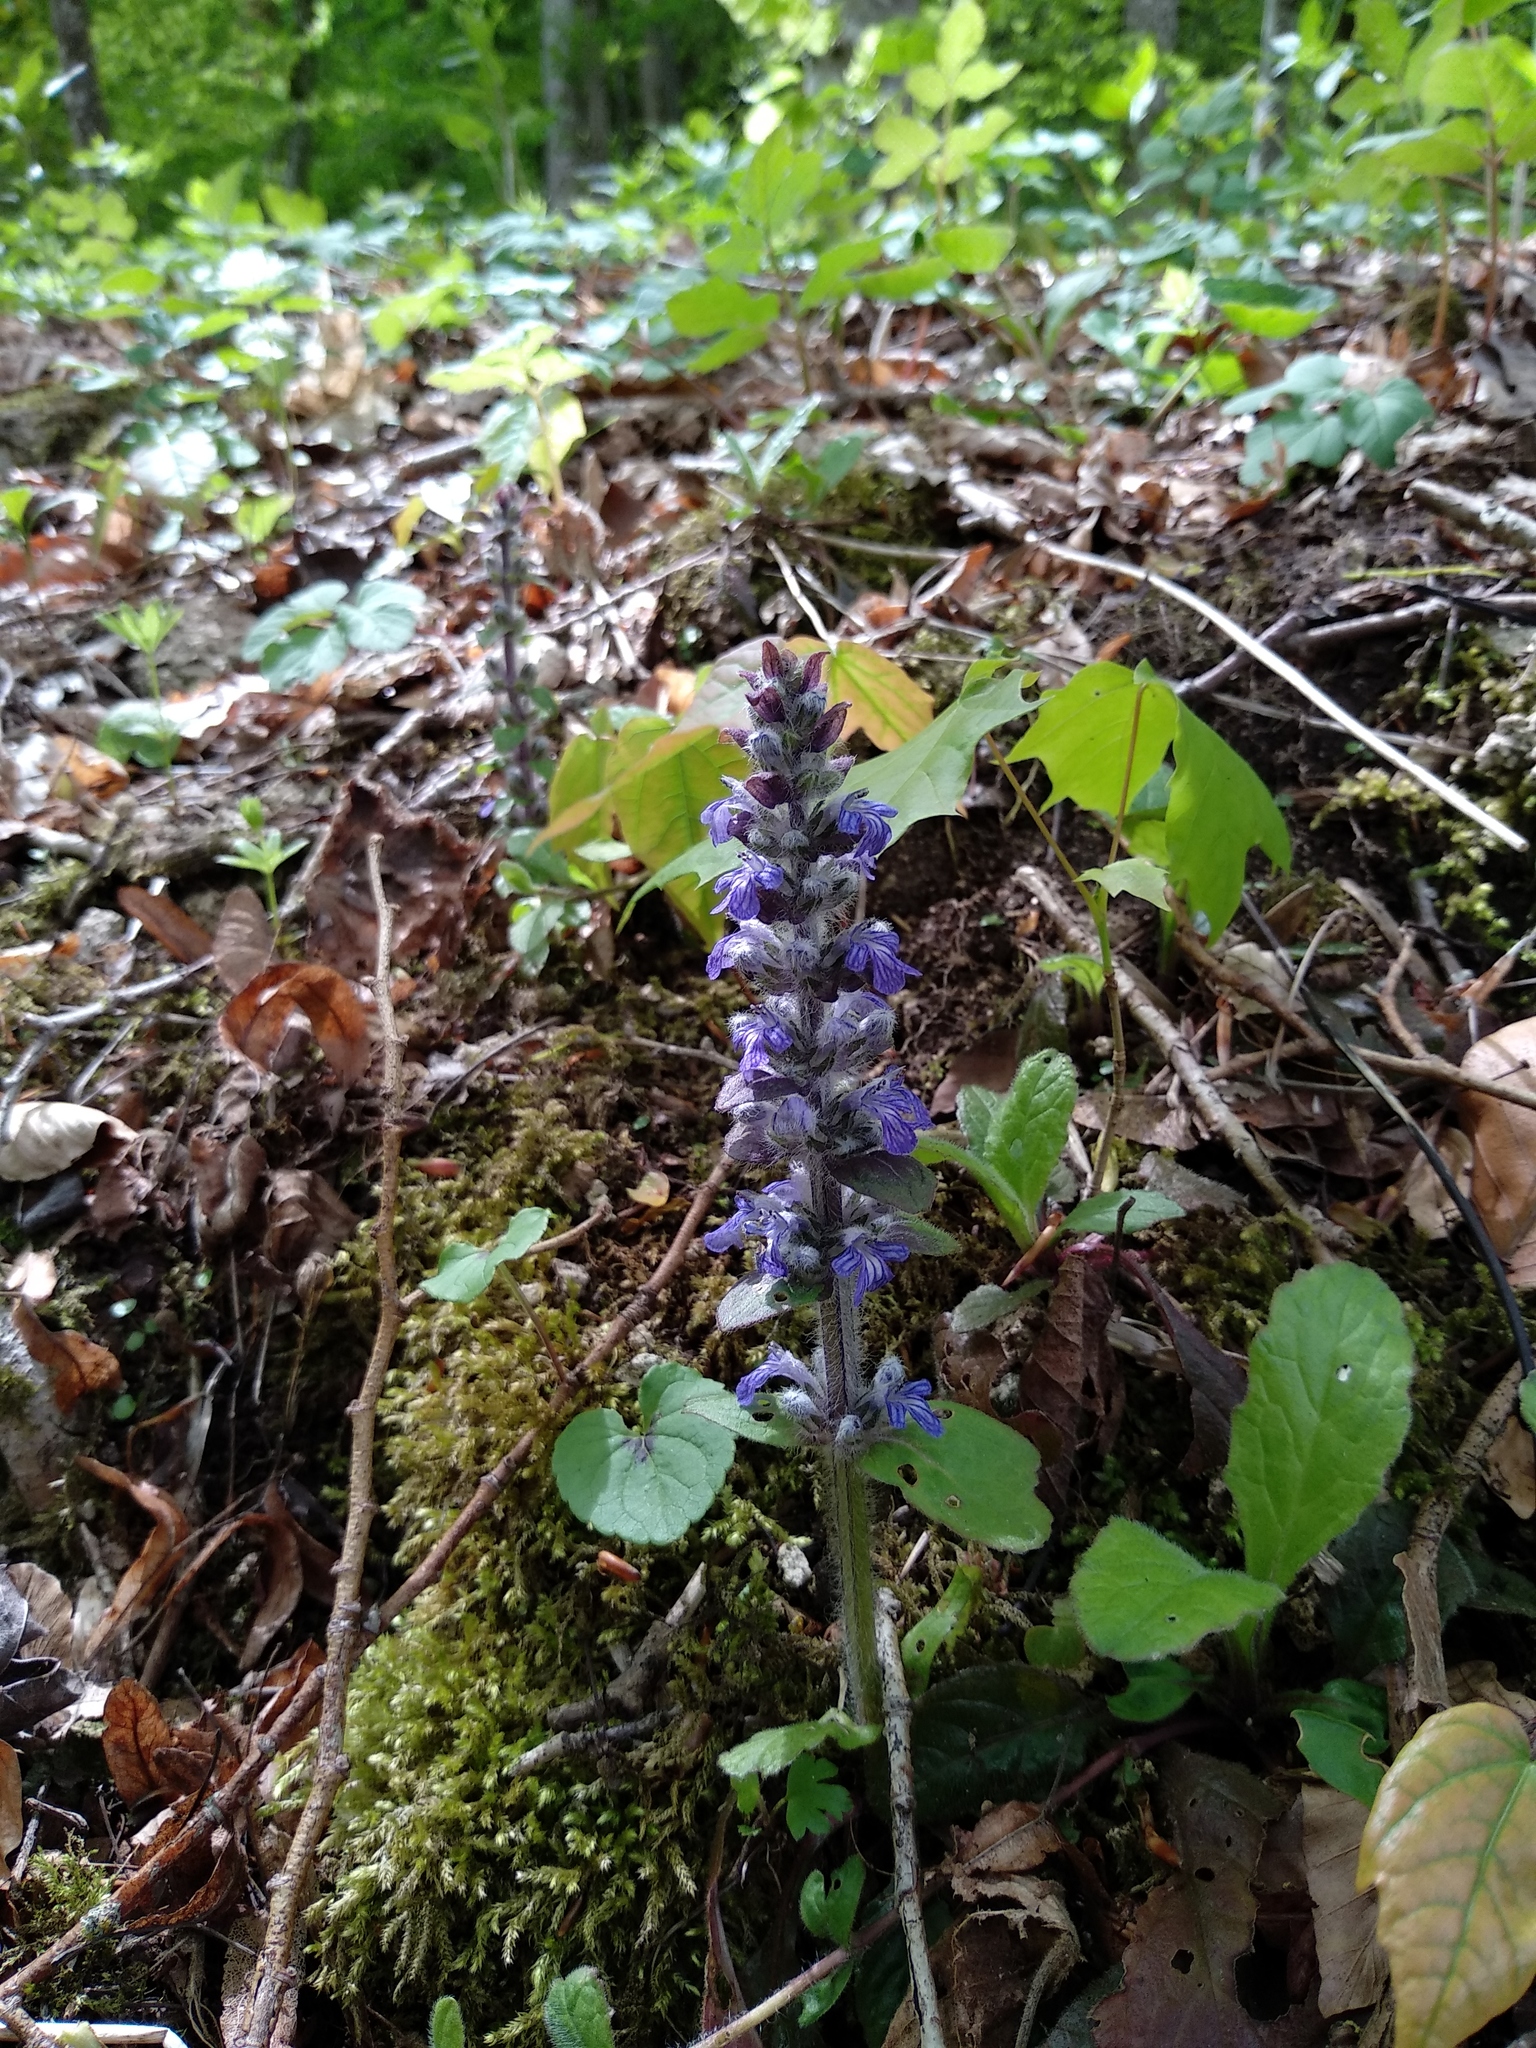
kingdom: Plantae
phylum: Tracheophyta
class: Magnoliopsida
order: Lamiales
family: Lamiaceae
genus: Ajuga
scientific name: Ajuga reptans
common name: Bugle
